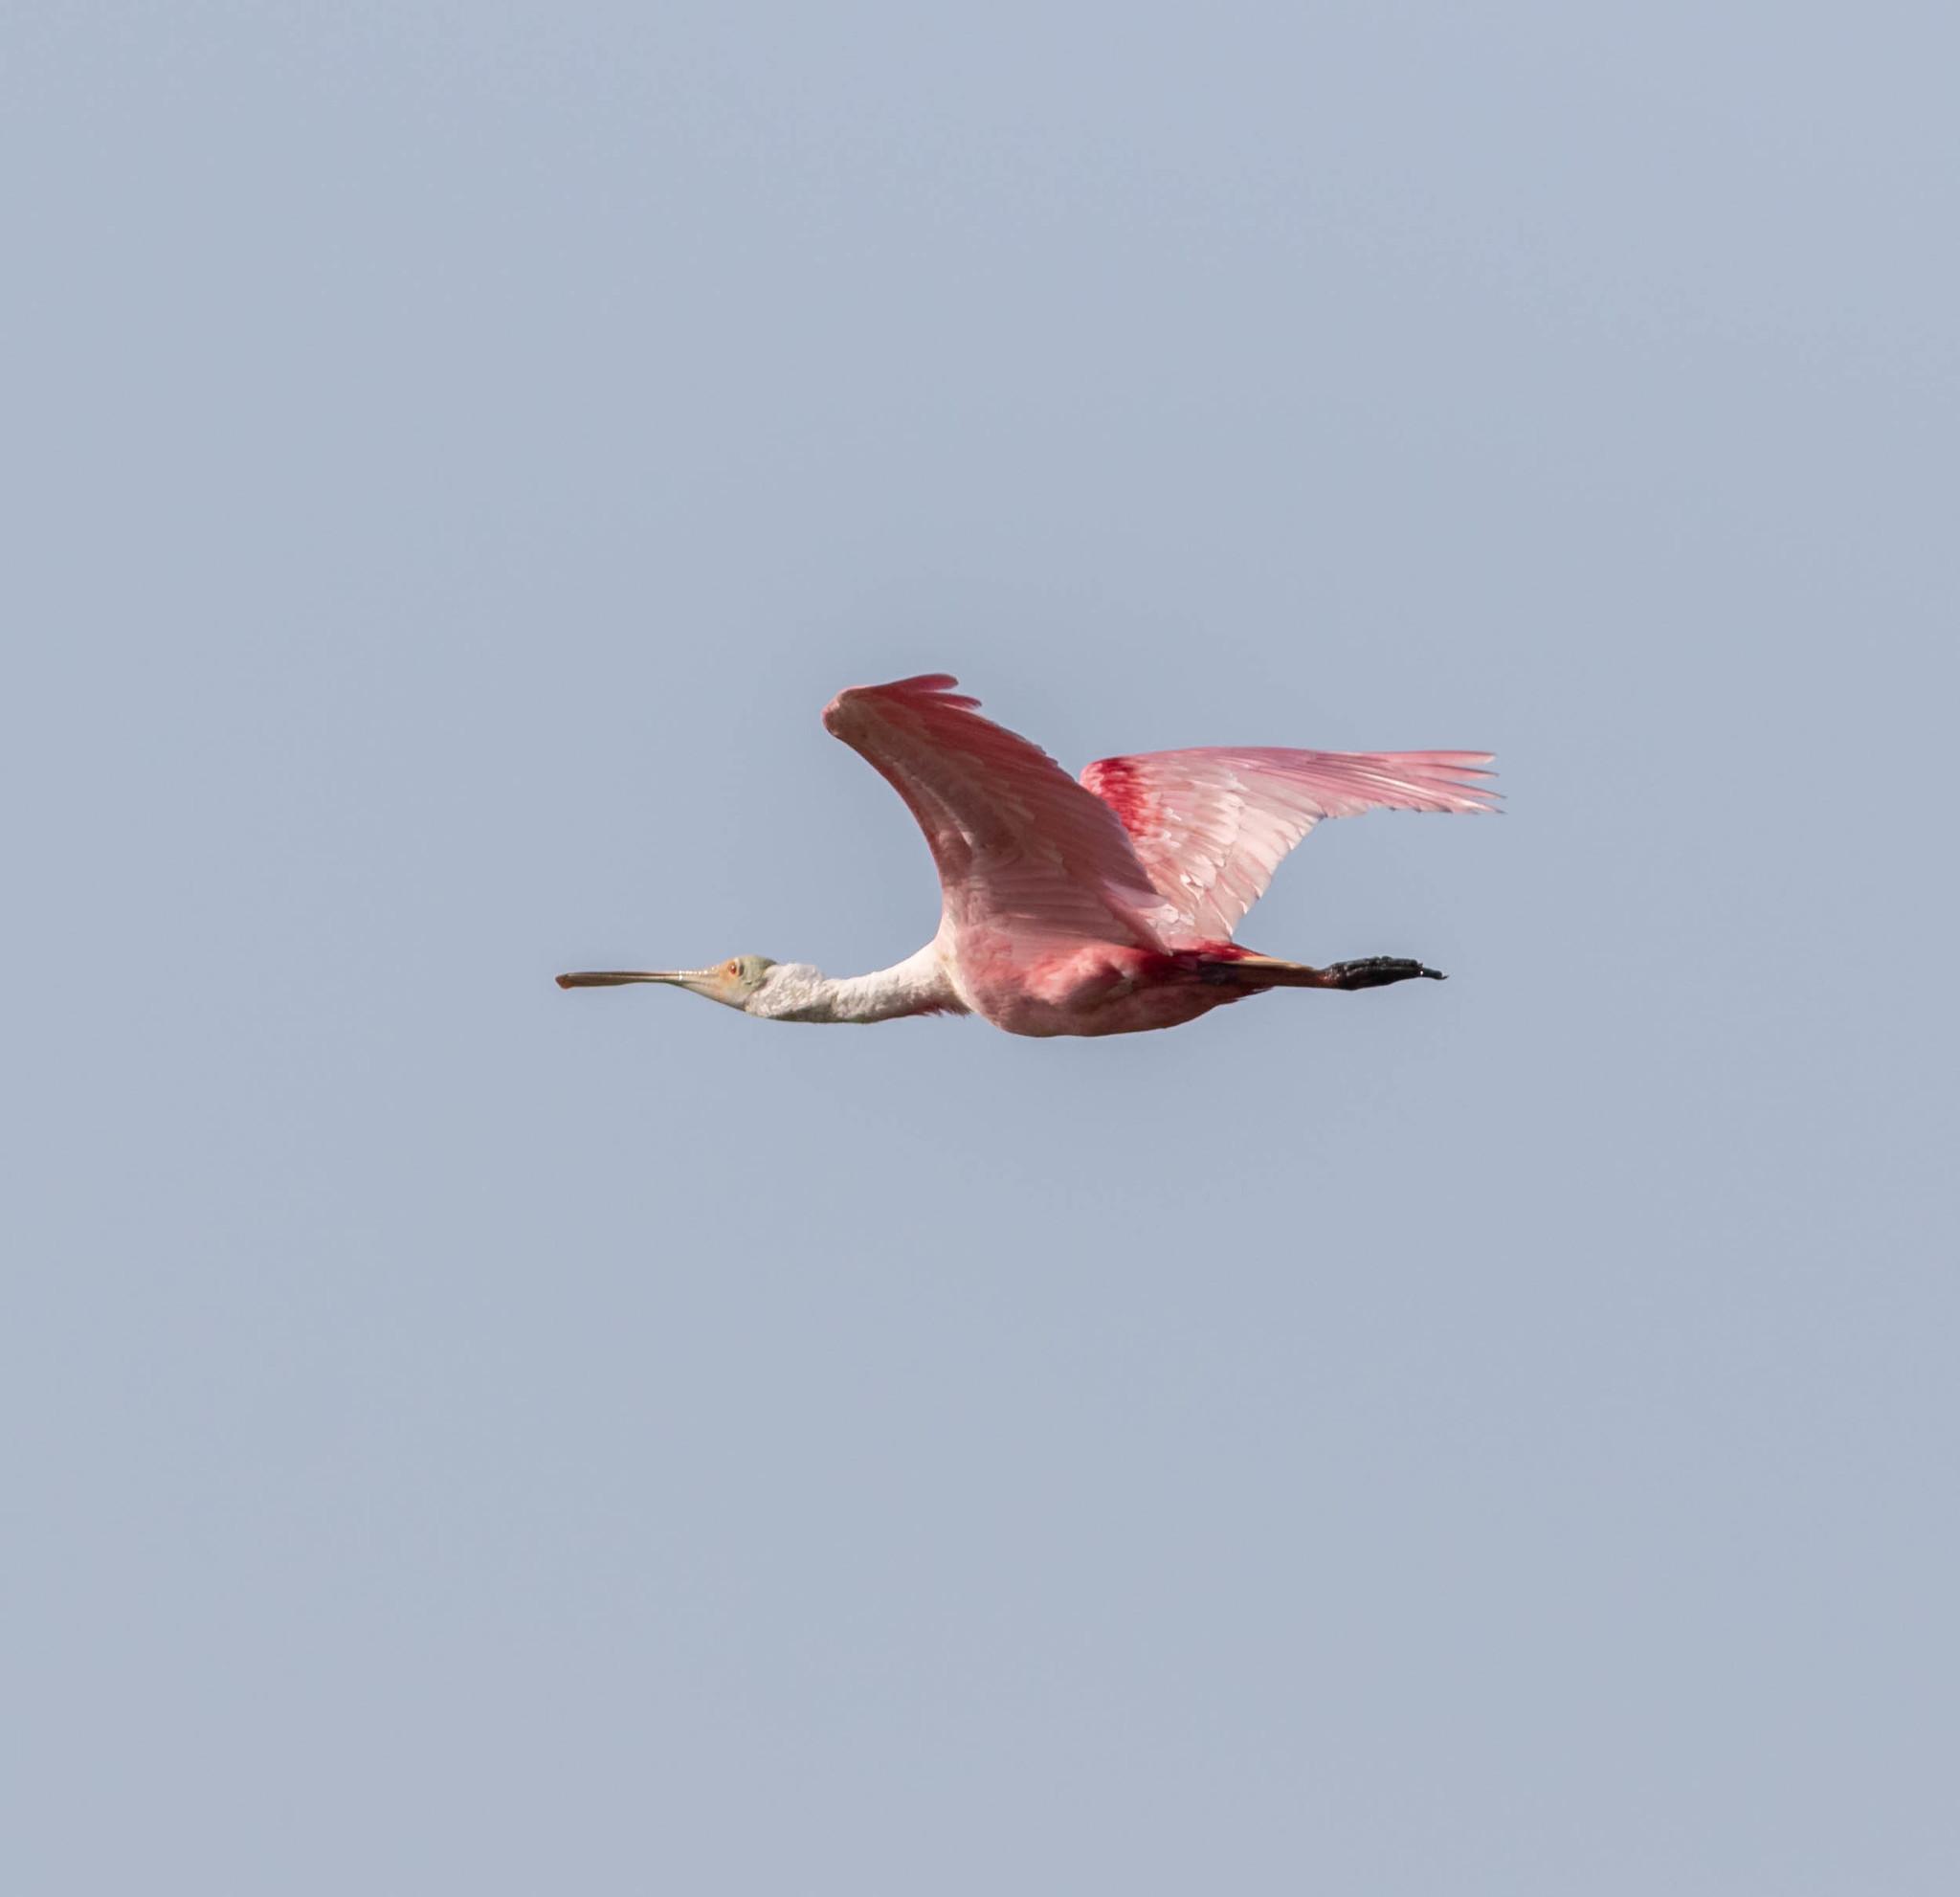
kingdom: Animalia
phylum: Chordata
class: Aves
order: Pelecaniformes
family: Threskiornithidae
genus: Platalea
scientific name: Platalea ajaja
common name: Roseate spoonbill
